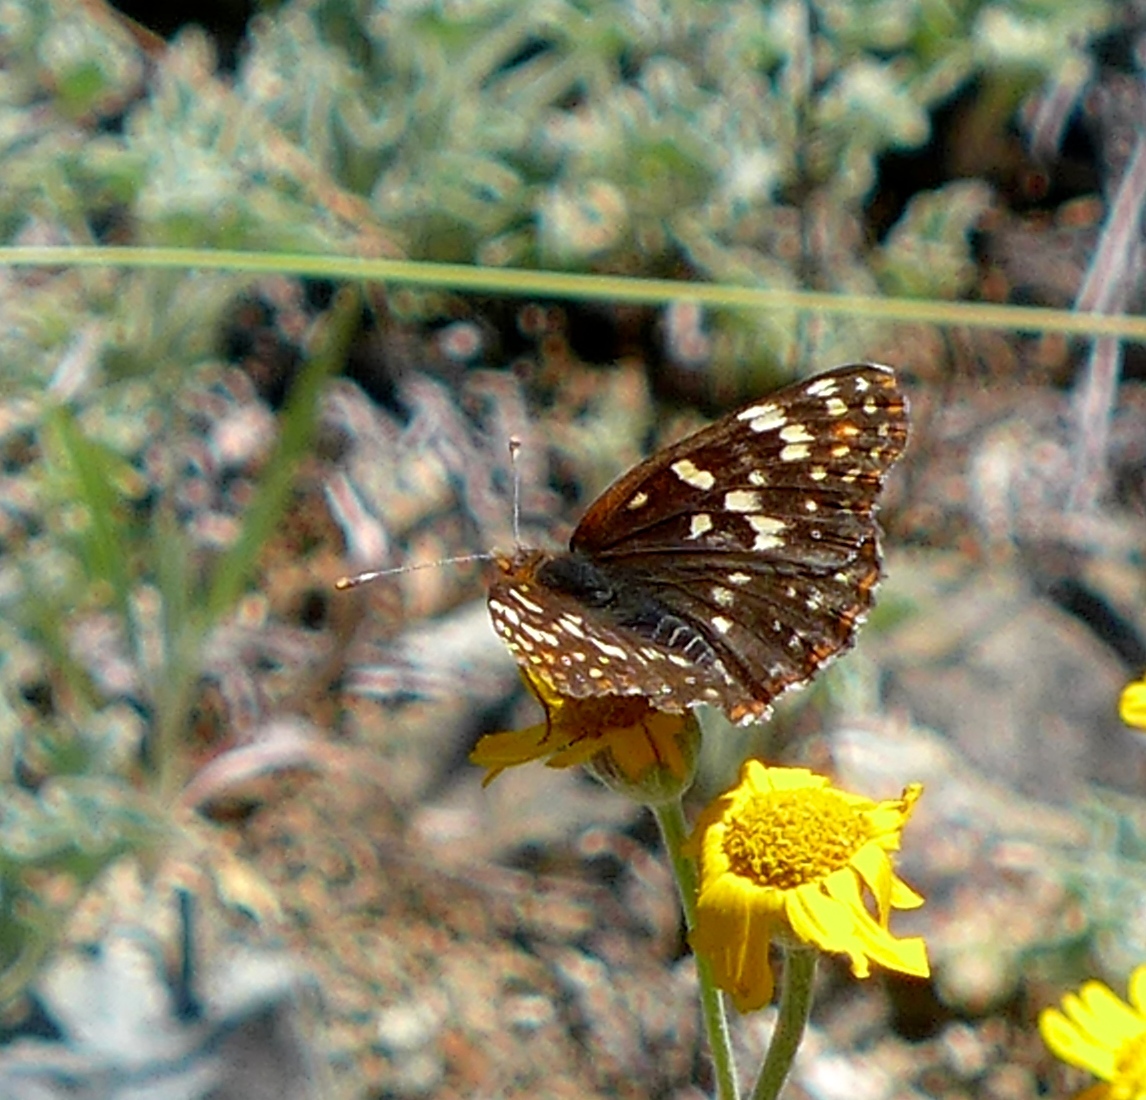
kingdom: Animalia
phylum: Arthropoda
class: Insecta
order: Lepidoptera
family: Nymphalidae
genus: Chlosyne
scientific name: Chlosyne palla
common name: Northern checkerspot
